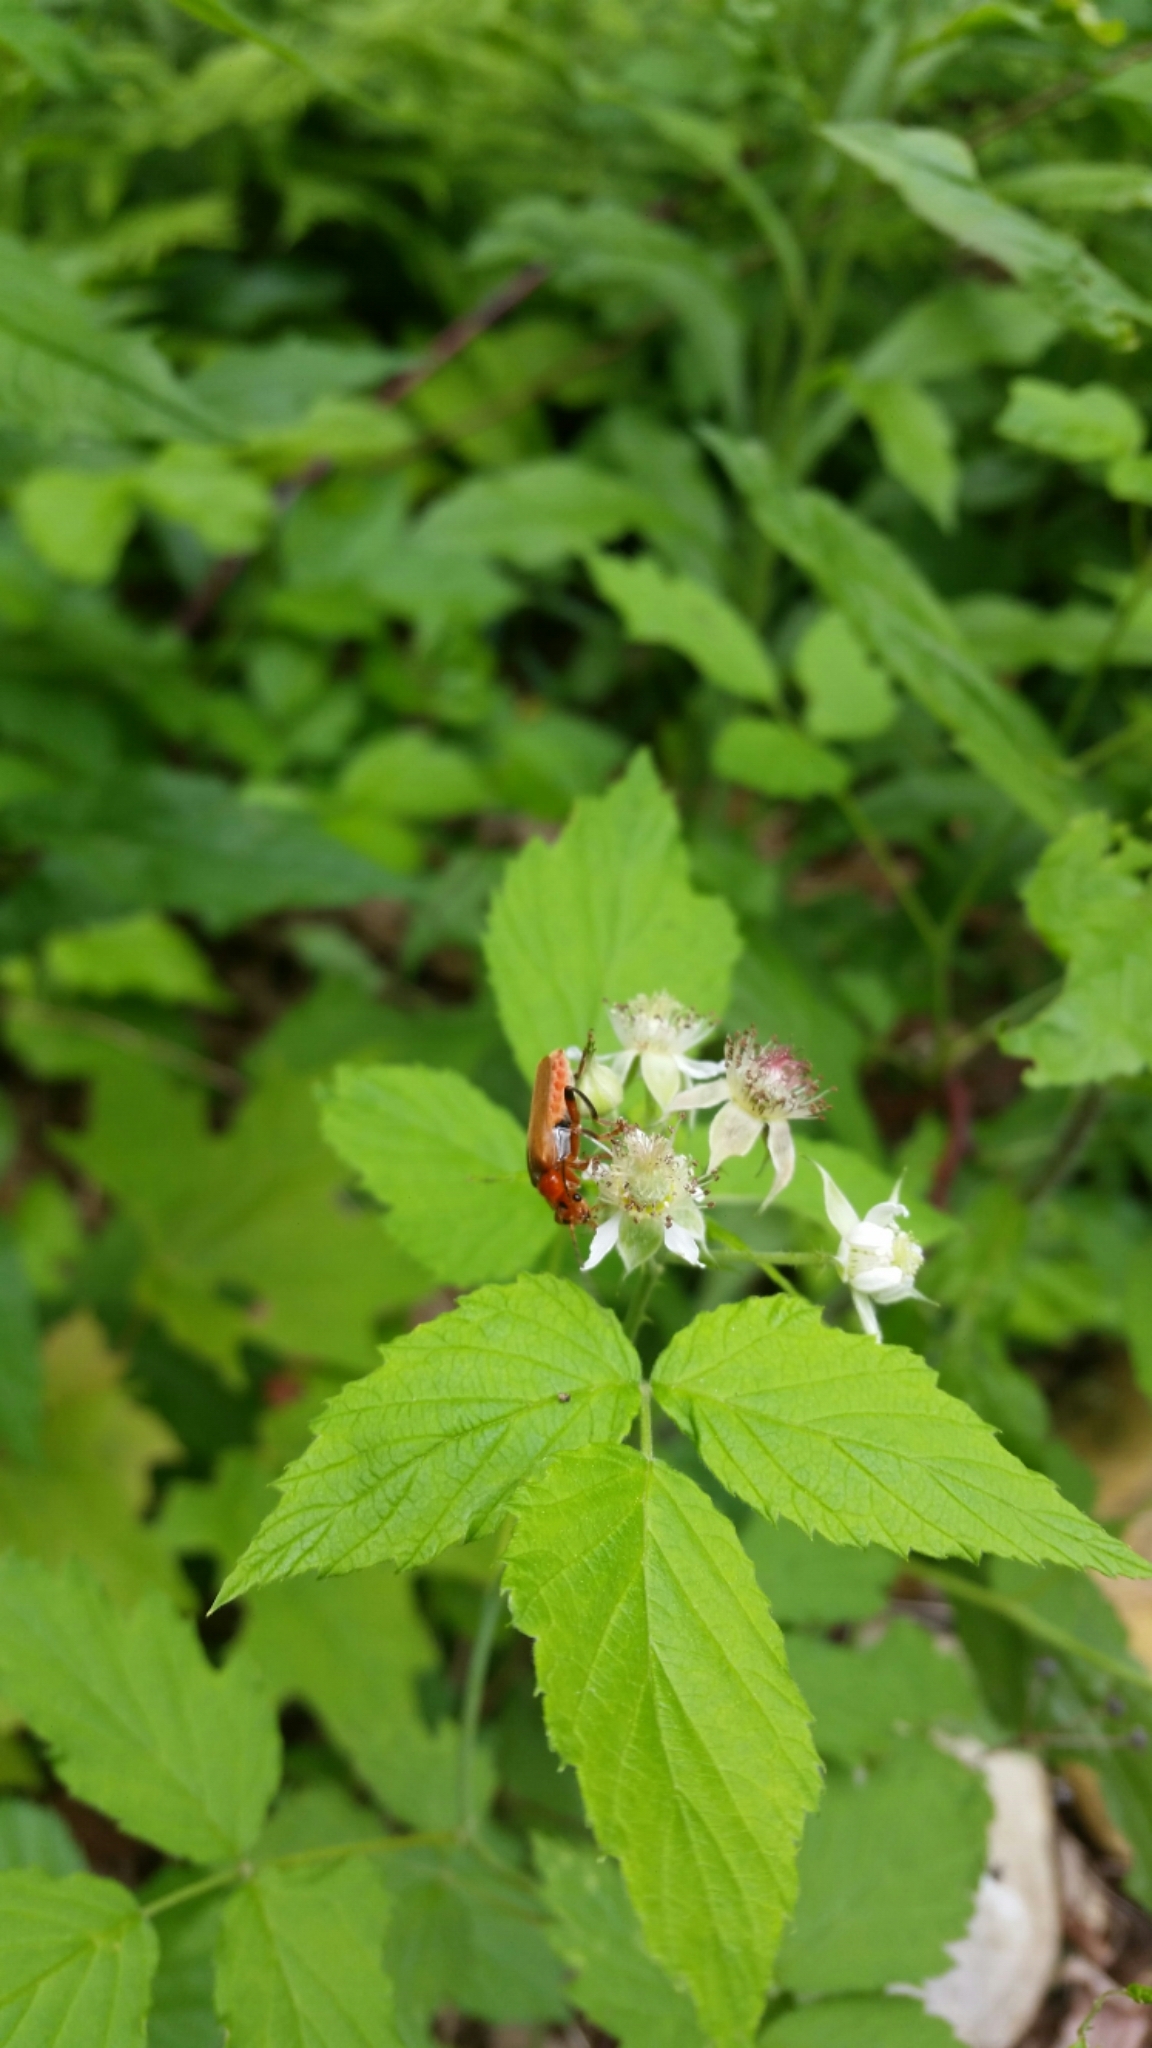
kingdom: Animalia
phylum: Arthropoda
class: Insecta
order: Coleoptera
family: Cantharidae
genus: Cantharis
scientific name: Cantharis livida
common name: Livid soldier beetle
